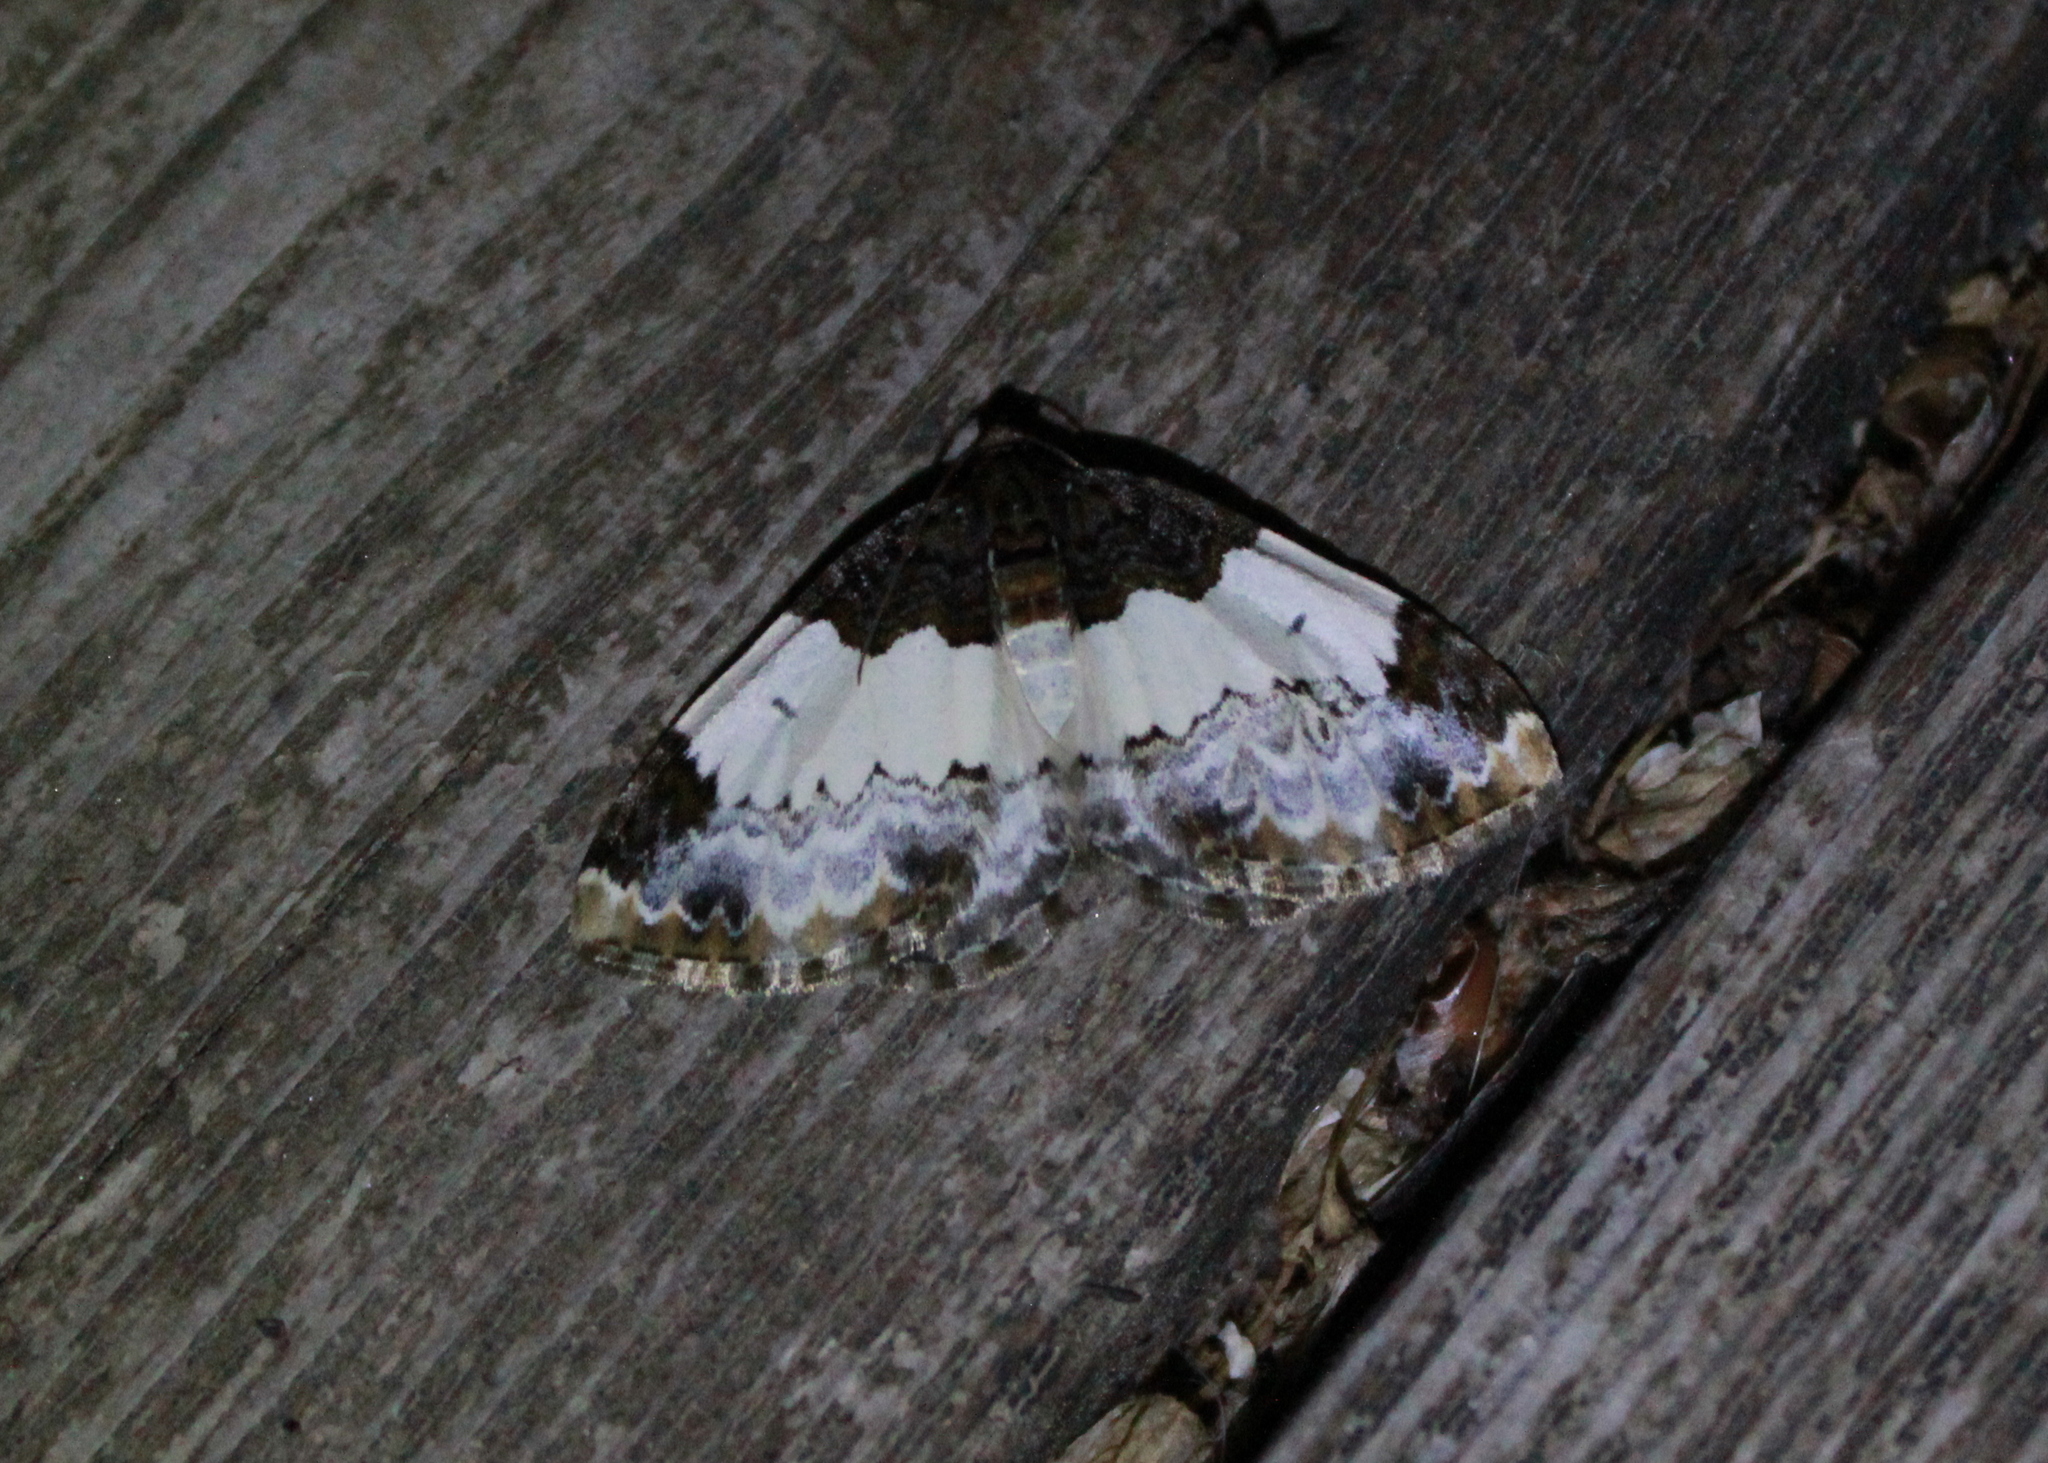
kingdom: Animalia
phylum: Arthropoda
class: Insecta
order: Lepidoptera
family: Geometridae
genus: Mesoleuca
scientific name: Mesoleuca ruficillata
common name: White-ribboned carpet moth
